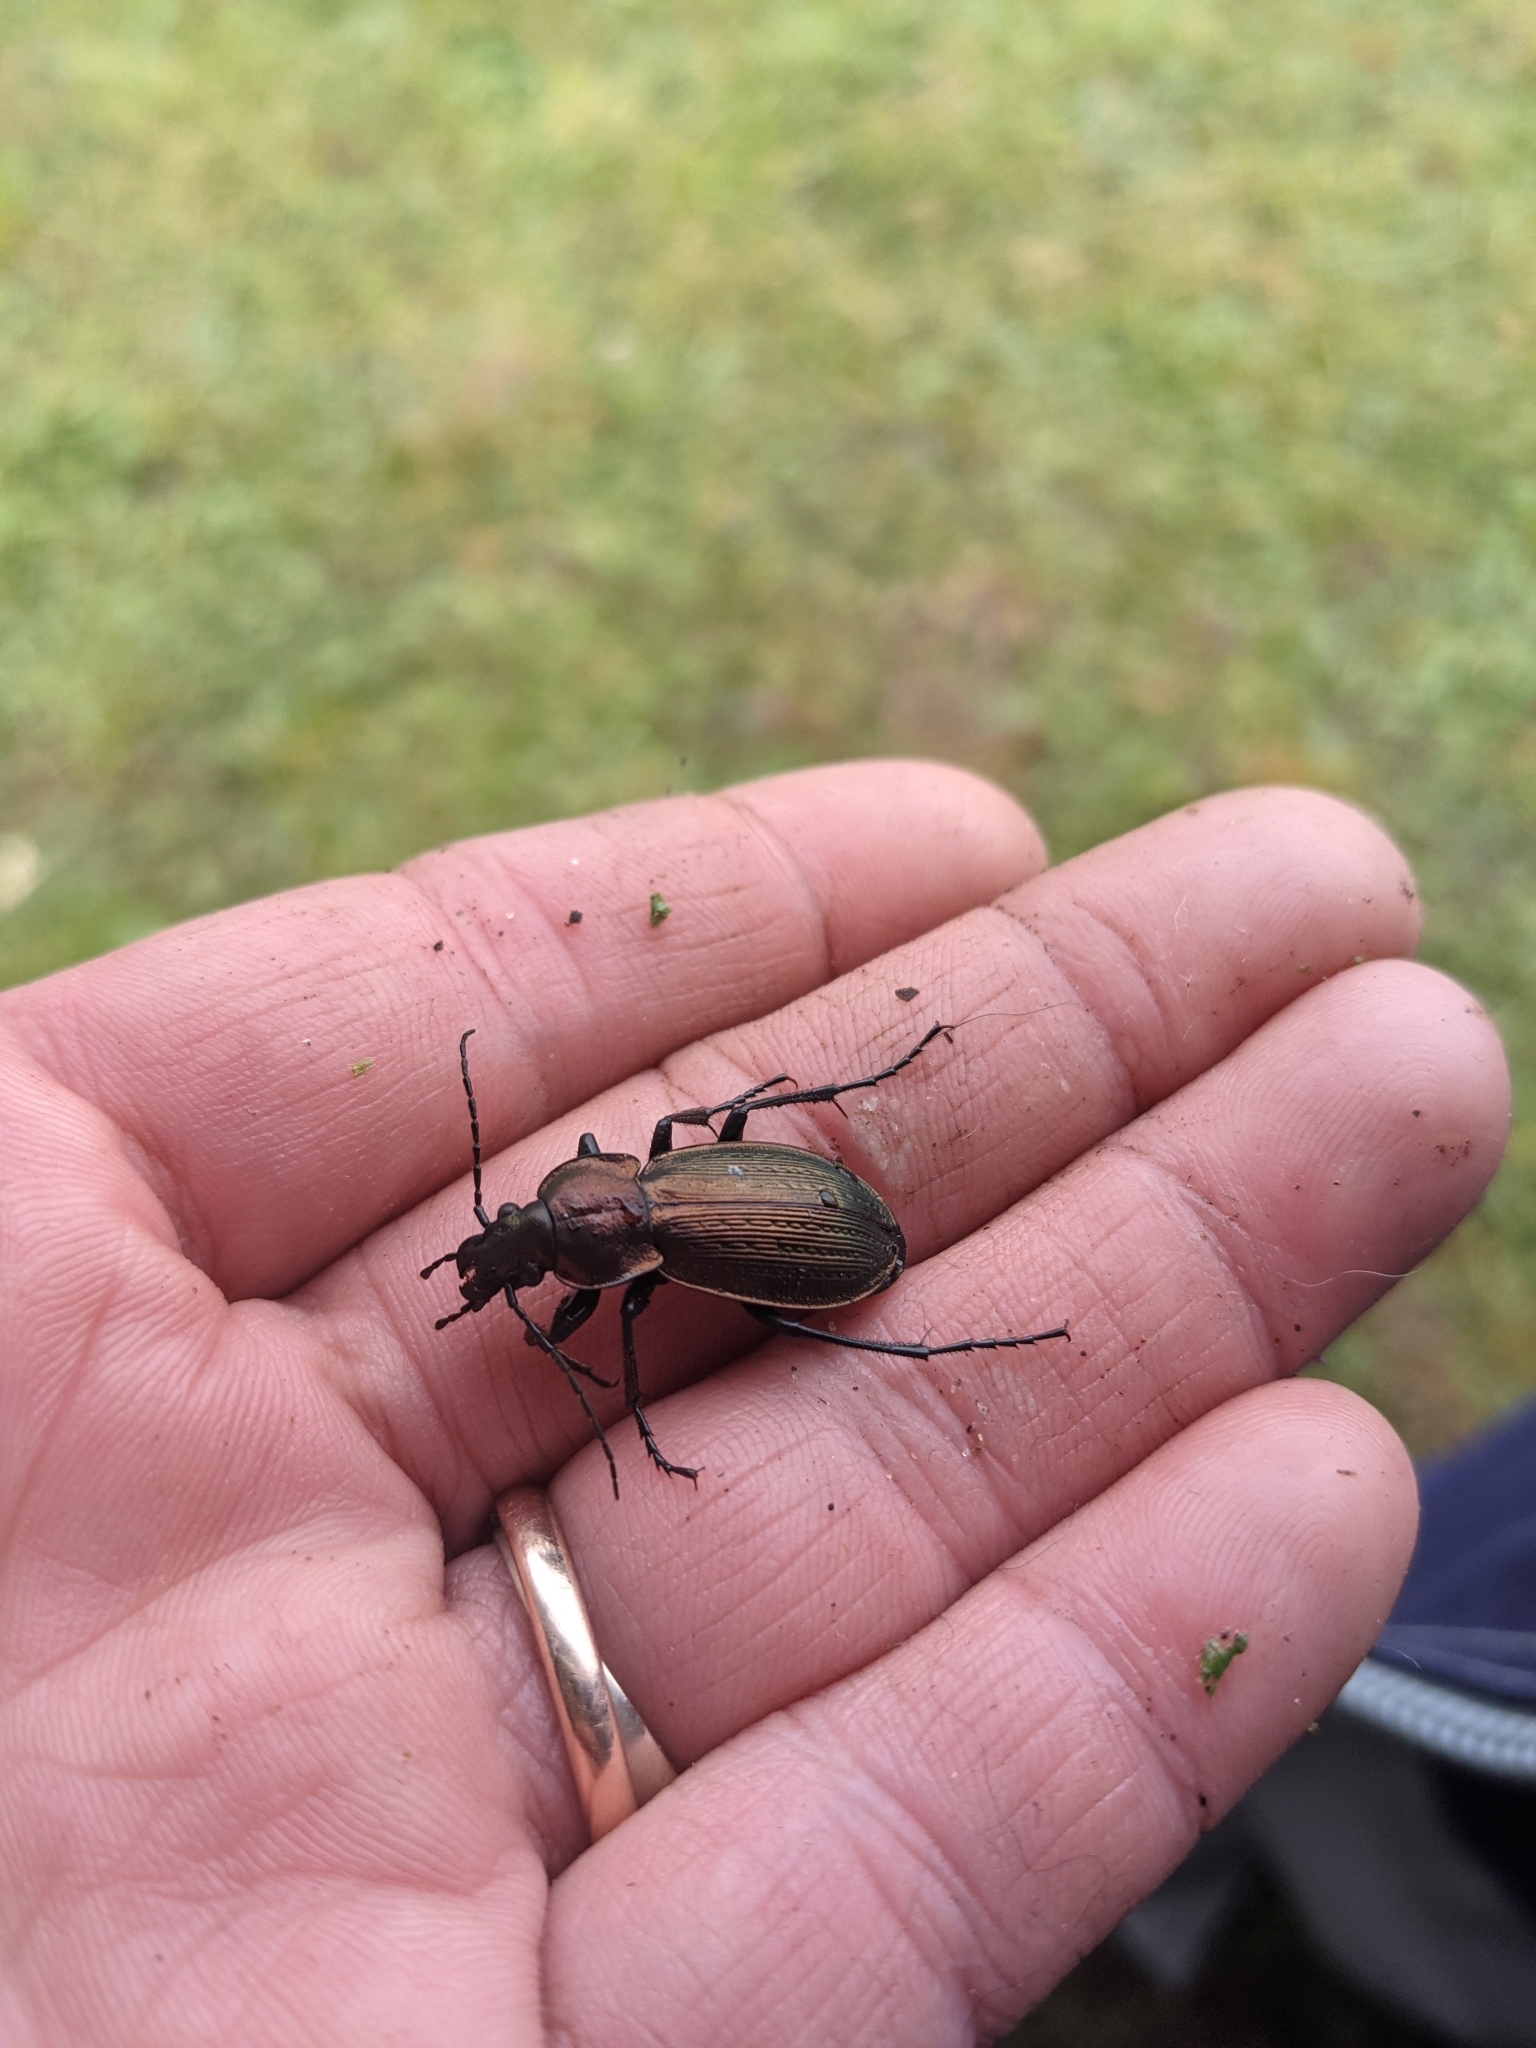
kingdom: Animalia
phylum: Arthropoda
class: Insecta
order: Coleoptera
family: Carabidae
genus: Carabus
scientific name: Carabus monilis
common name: Necklace ground beetle
